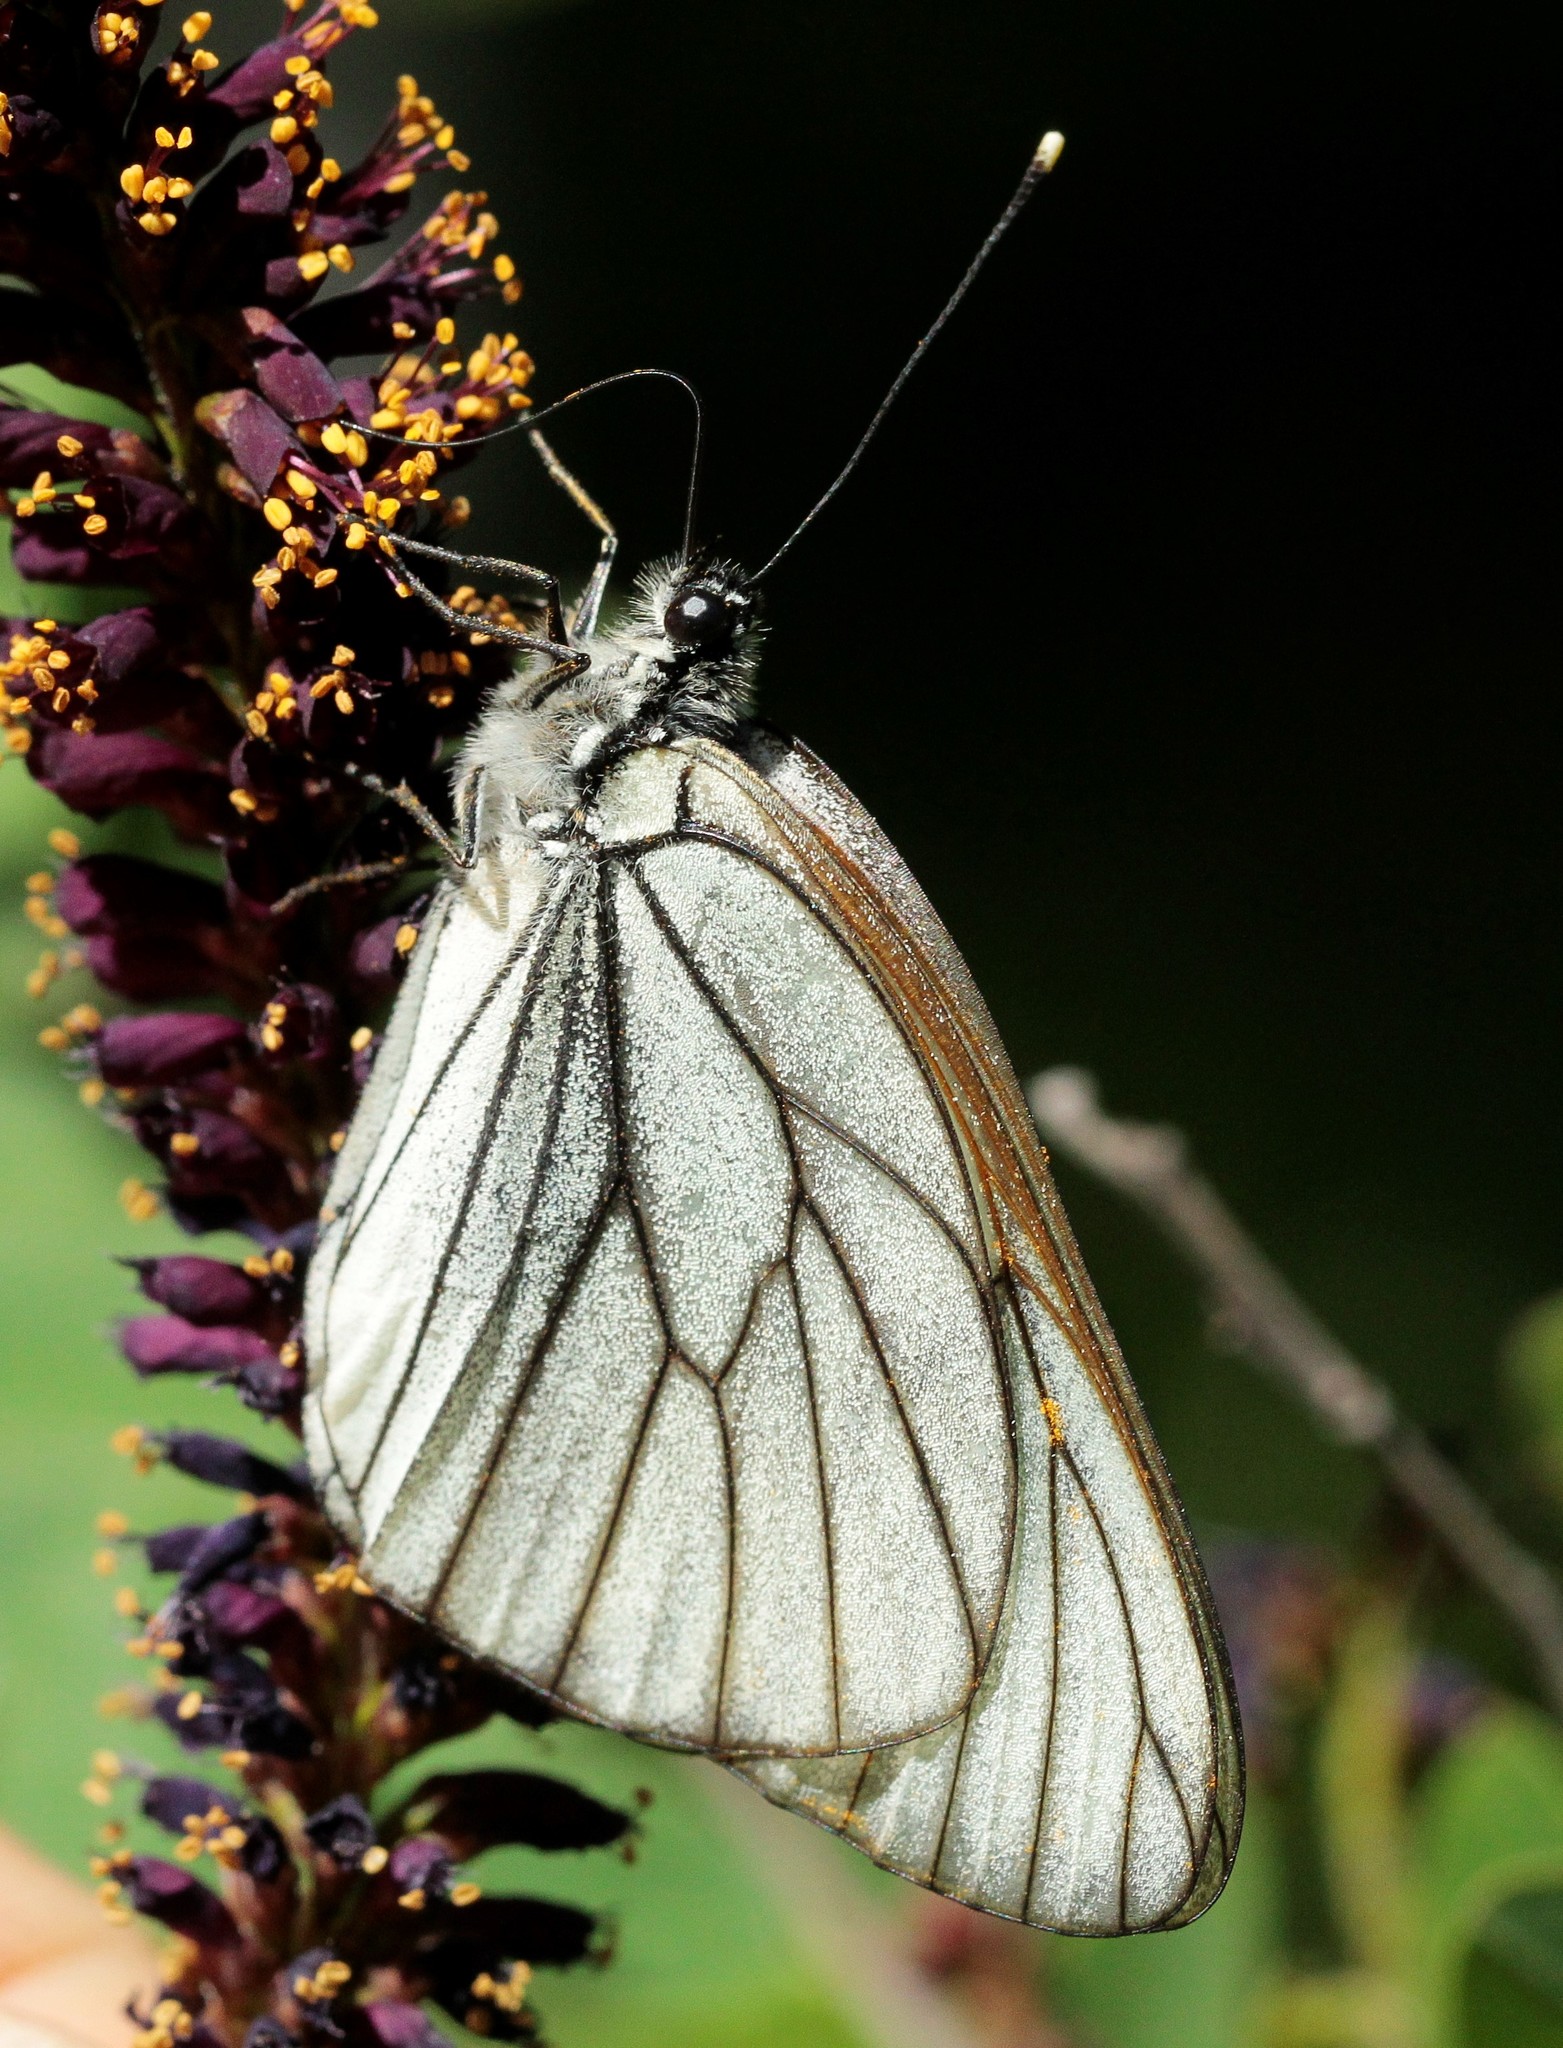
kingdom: Animalia
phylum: Arthropoda
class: Insecta
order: Lepidoptera
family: Pieridae
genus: Aporia
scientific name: Aporia crataegi
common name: Black-veined white
